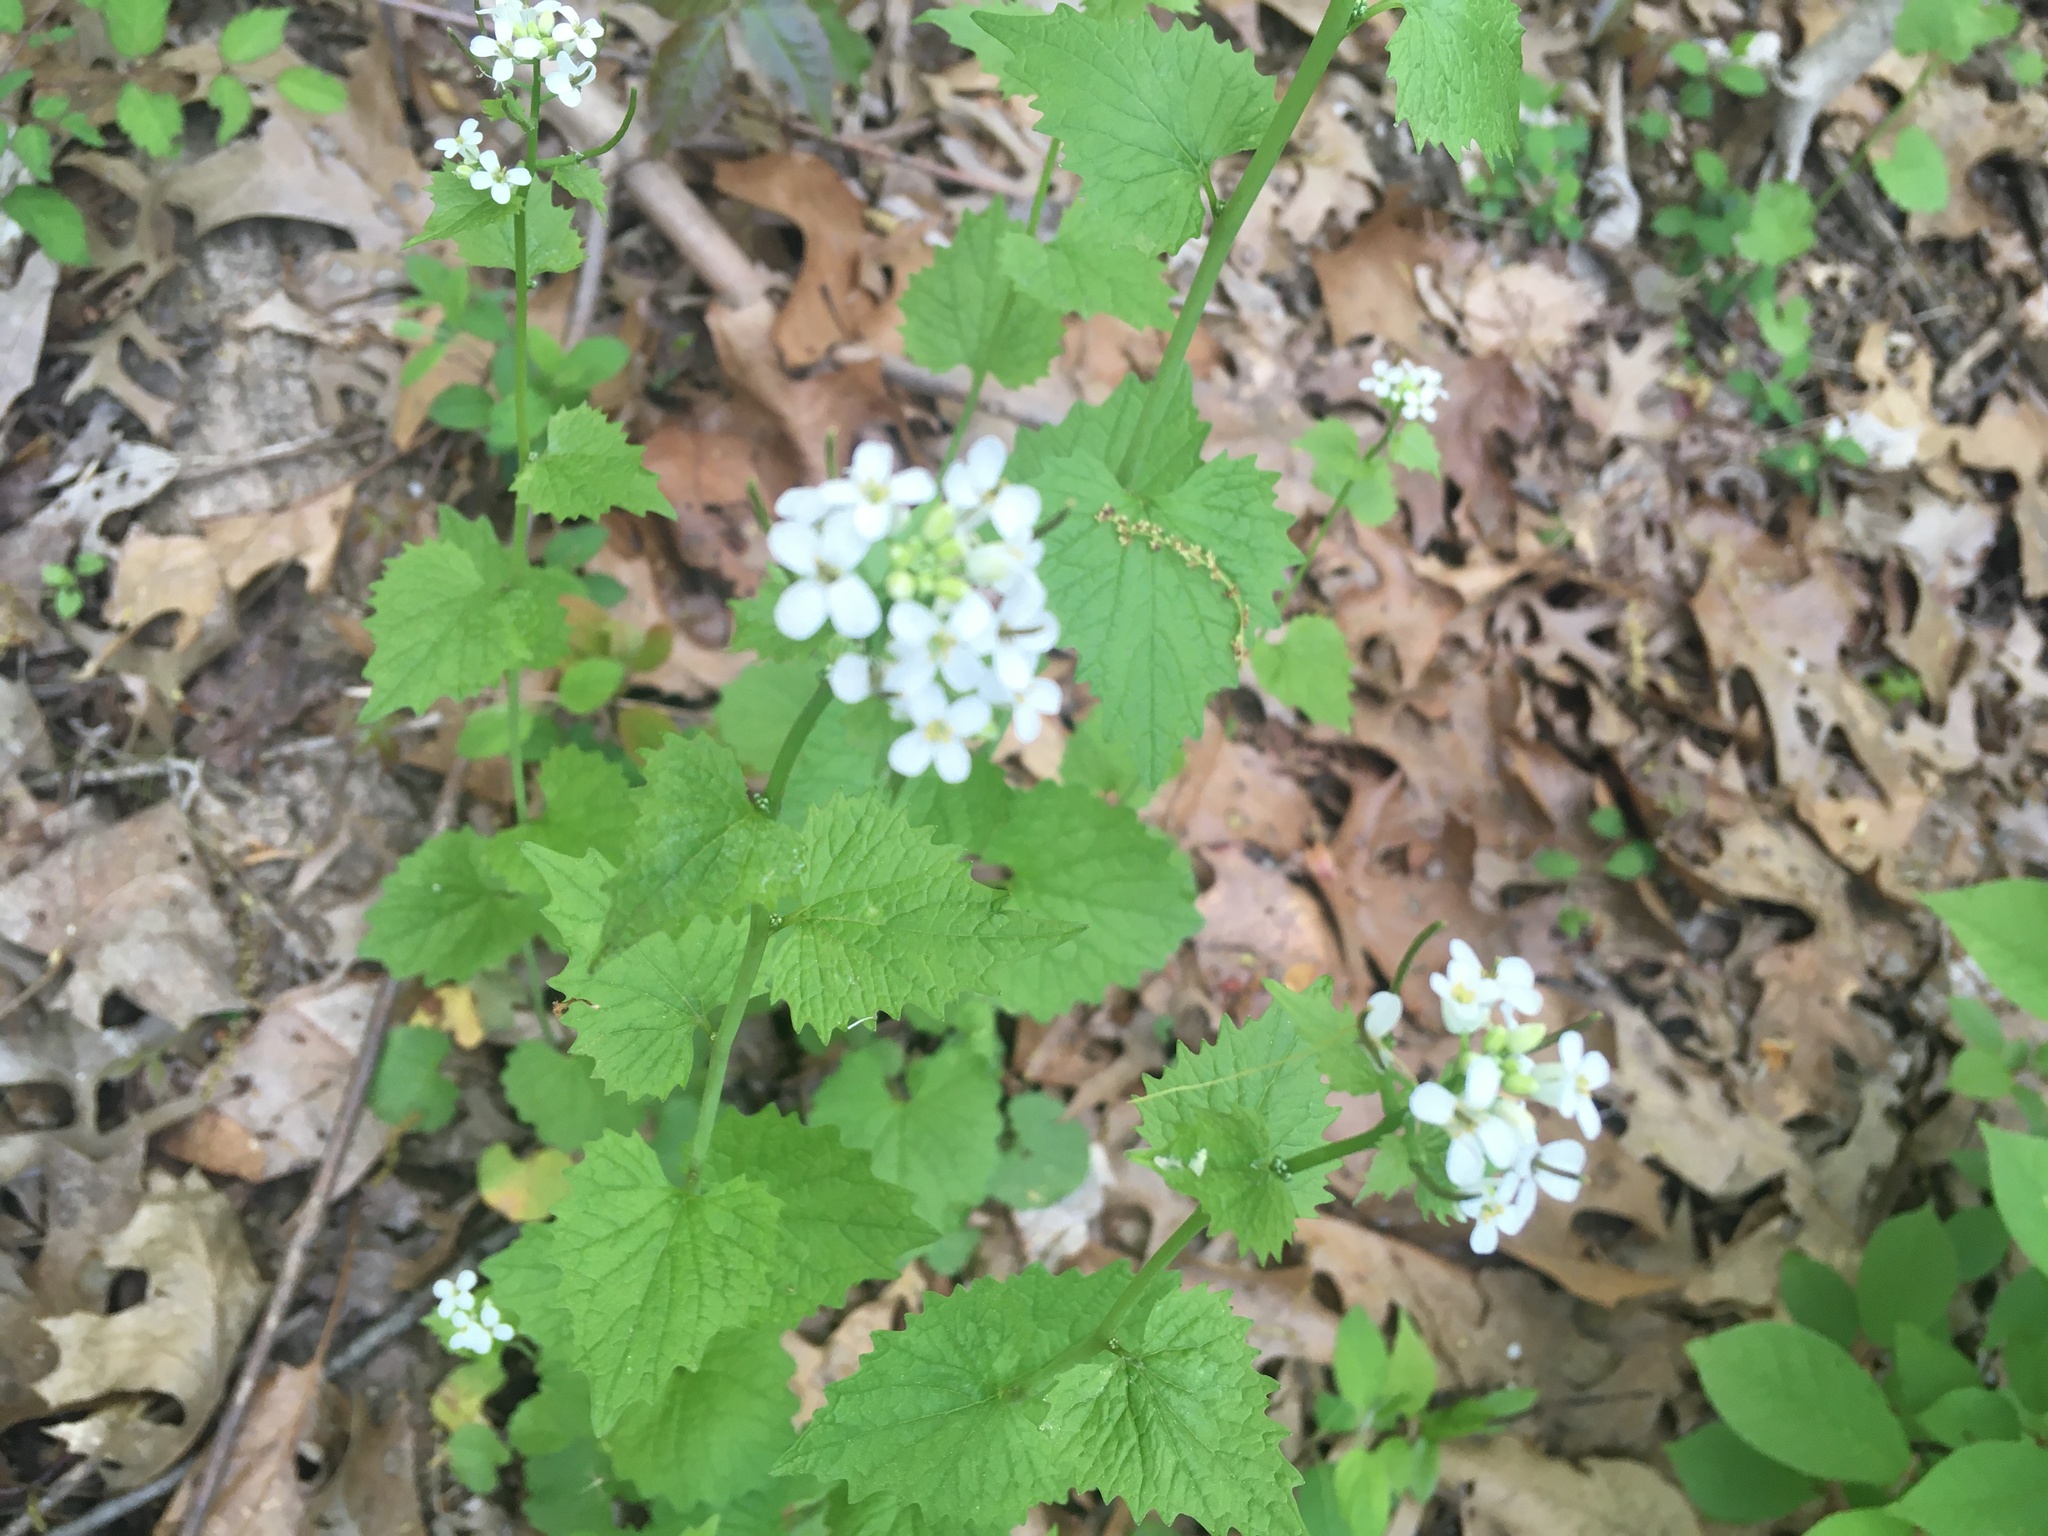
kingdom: Plantae
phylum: Tracheophyta
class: Magnoliopsida
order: Brassicales
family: Brassicaceae
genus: Alliaria
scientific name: Alliaria petiolata
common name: Garlic mustard
